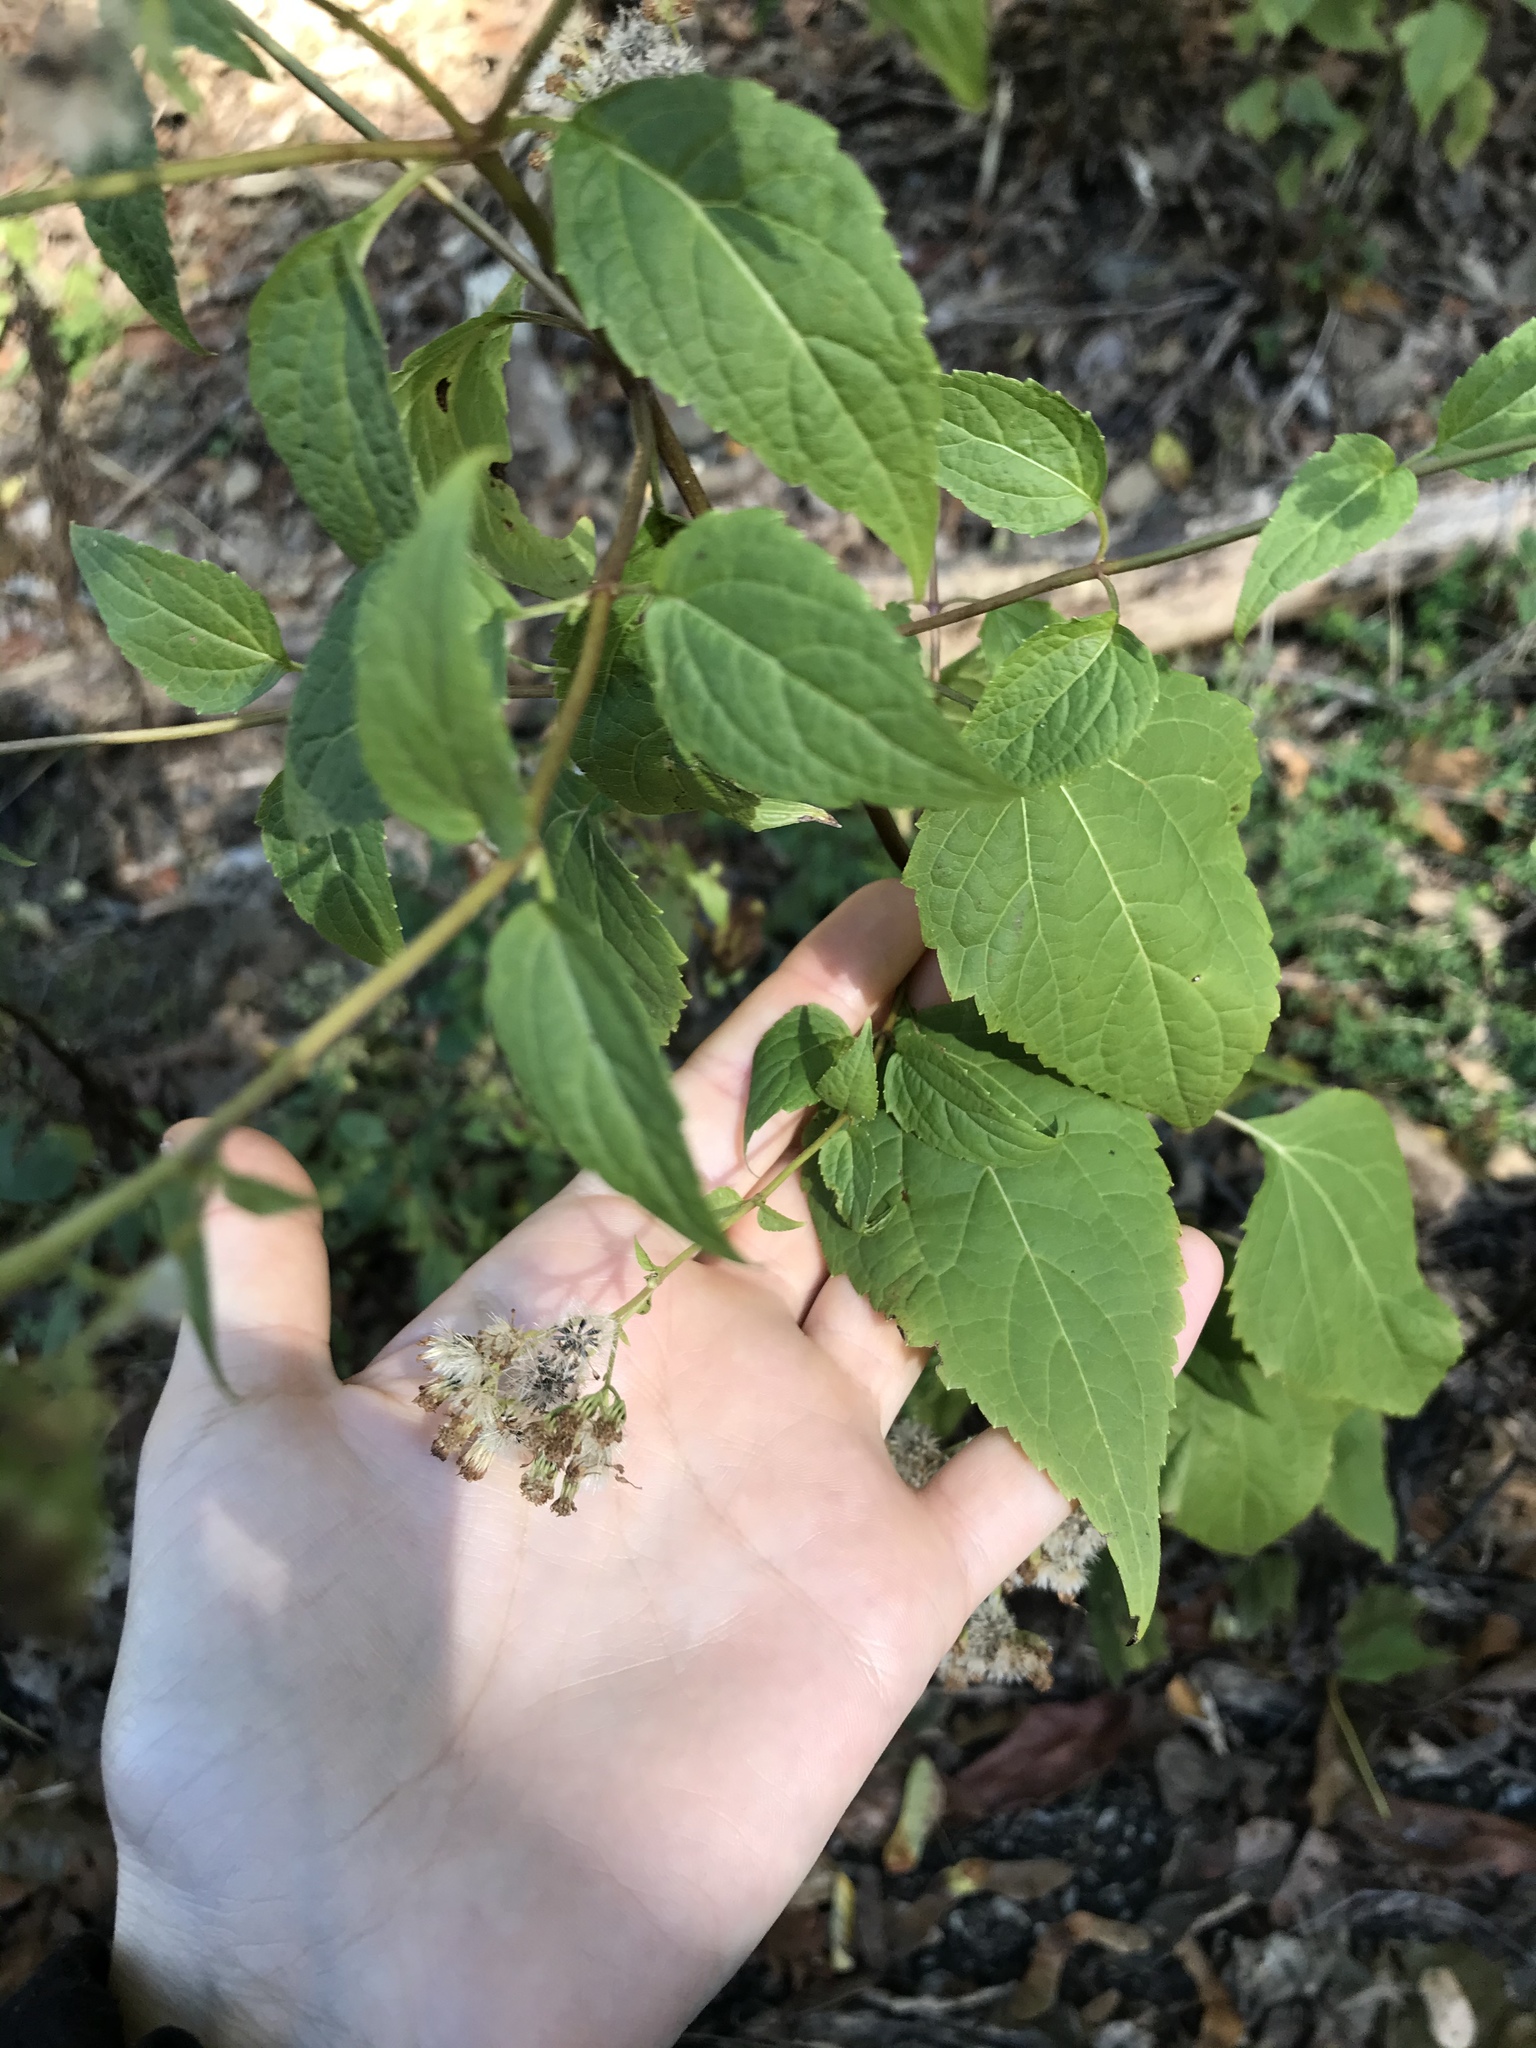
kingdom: Plantae
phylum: Tracheophyta
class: Magnoliopsida
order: Asterales
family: Asteraceae
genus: Ageratina
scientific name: Ageratina altissima
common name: White snakeroot
